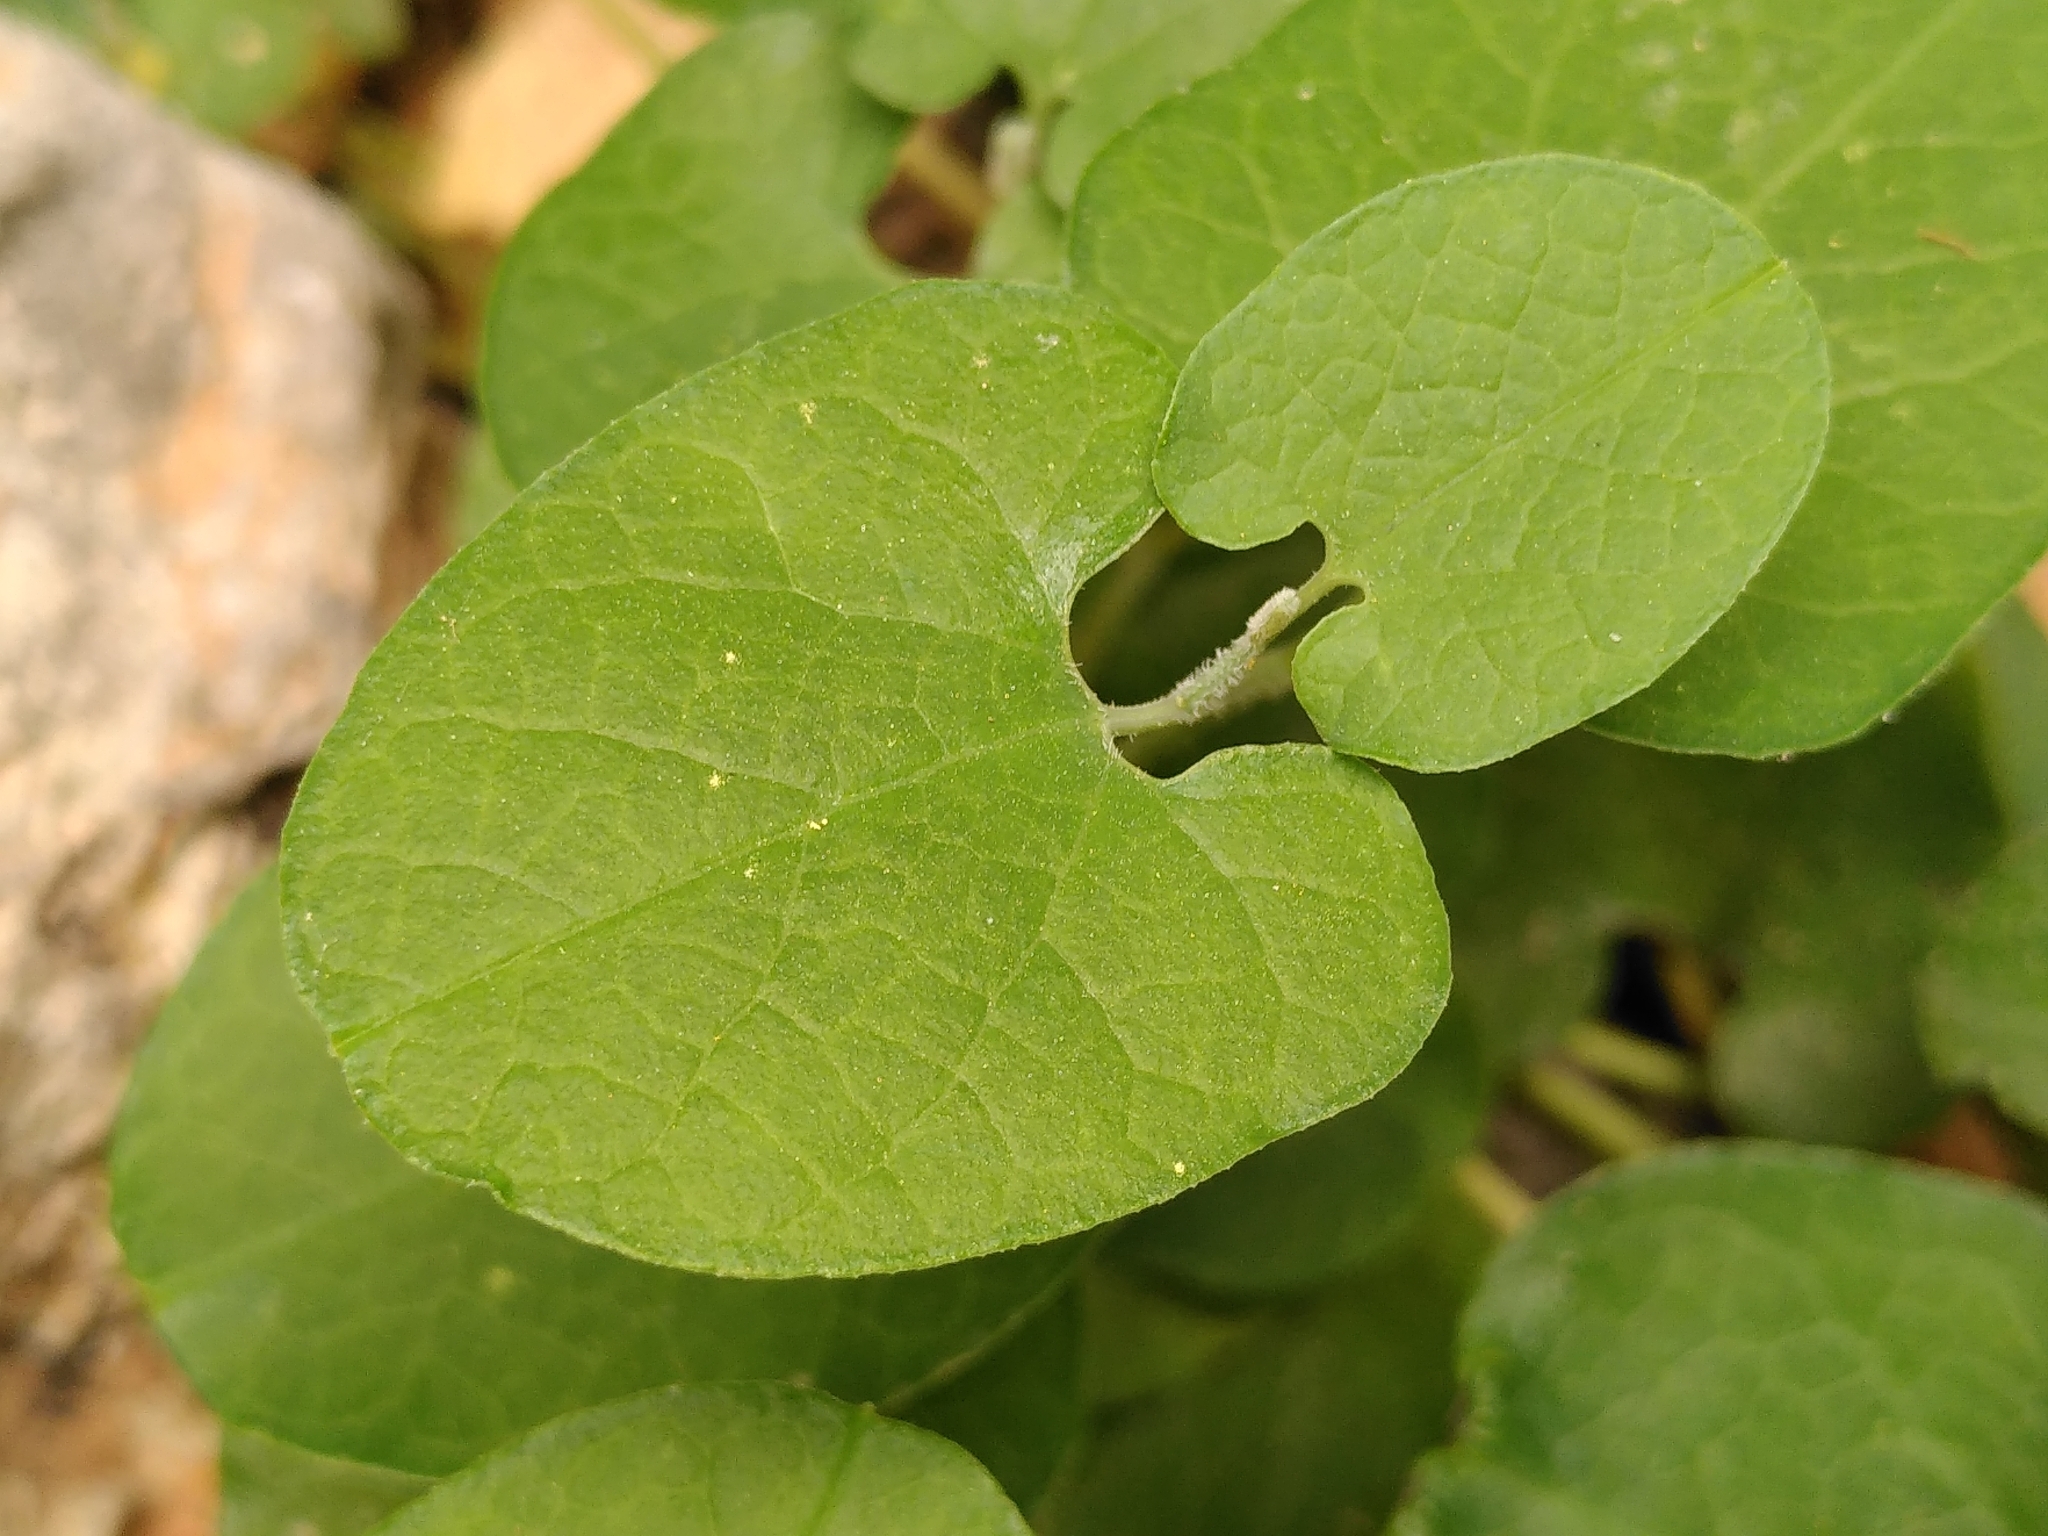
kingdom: Plantae
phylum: Tracheophyta
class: Magnoliopsida
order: Piperales
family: Aristolochiaceae
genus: Aristolochia
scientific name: Aristolochia cretica
